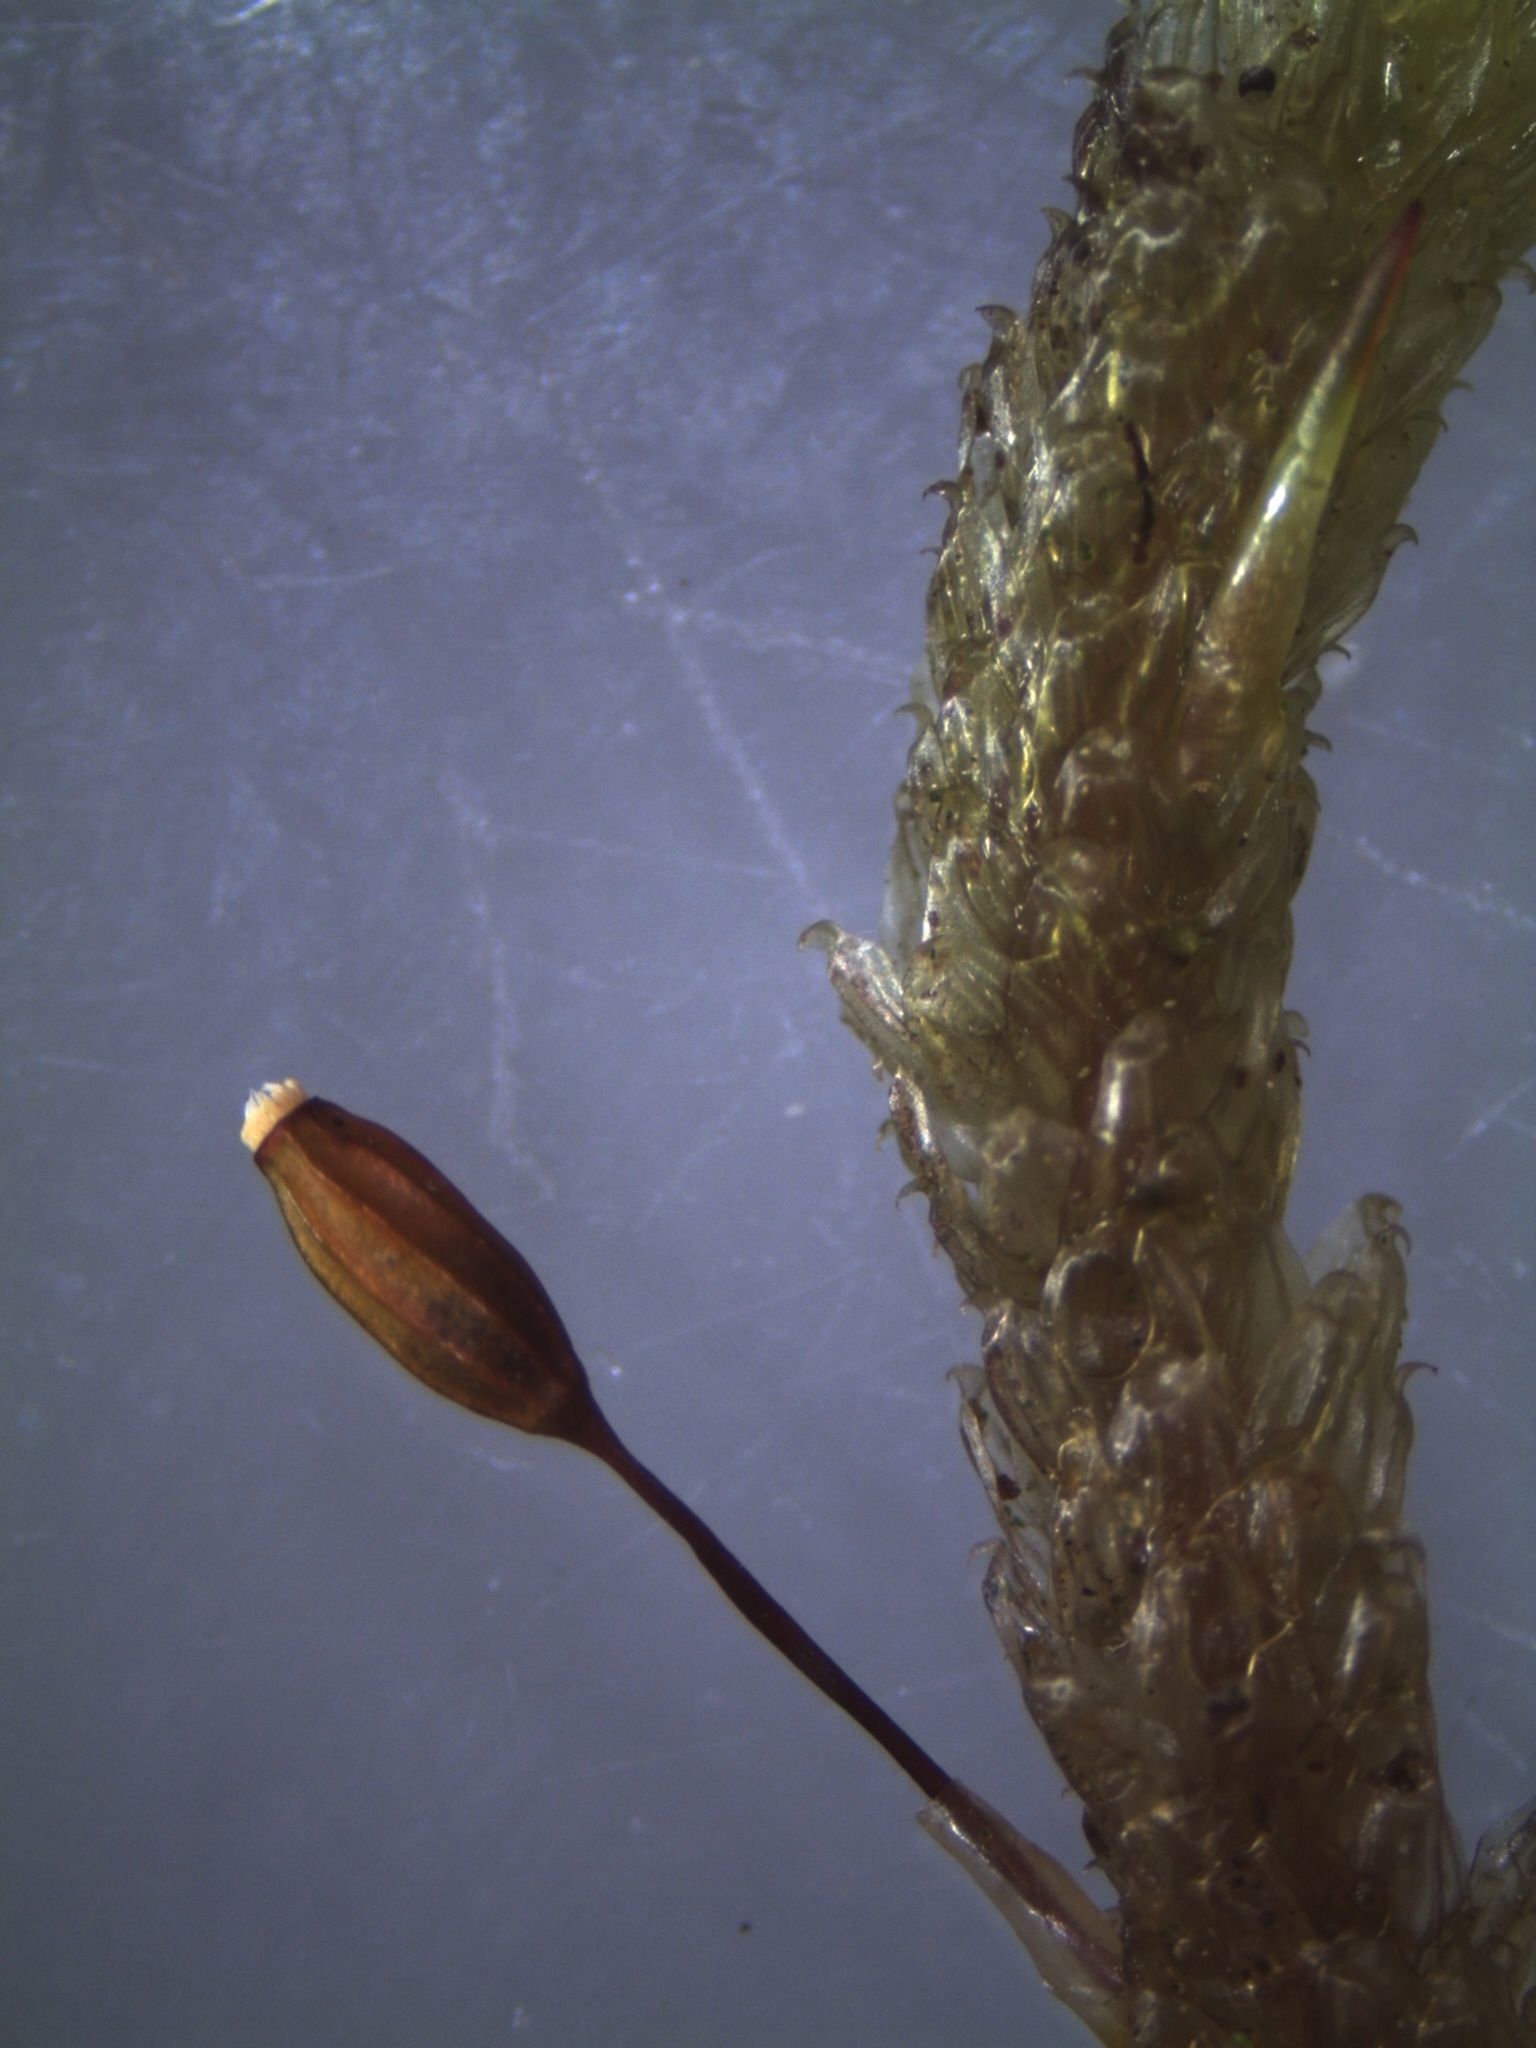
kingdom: Plantae
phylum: Bryophyta
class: Bryopsida
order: Ptychomniales
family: Ptychomniaceae
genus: Cladomnion
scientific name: Cladomnion ericoides
